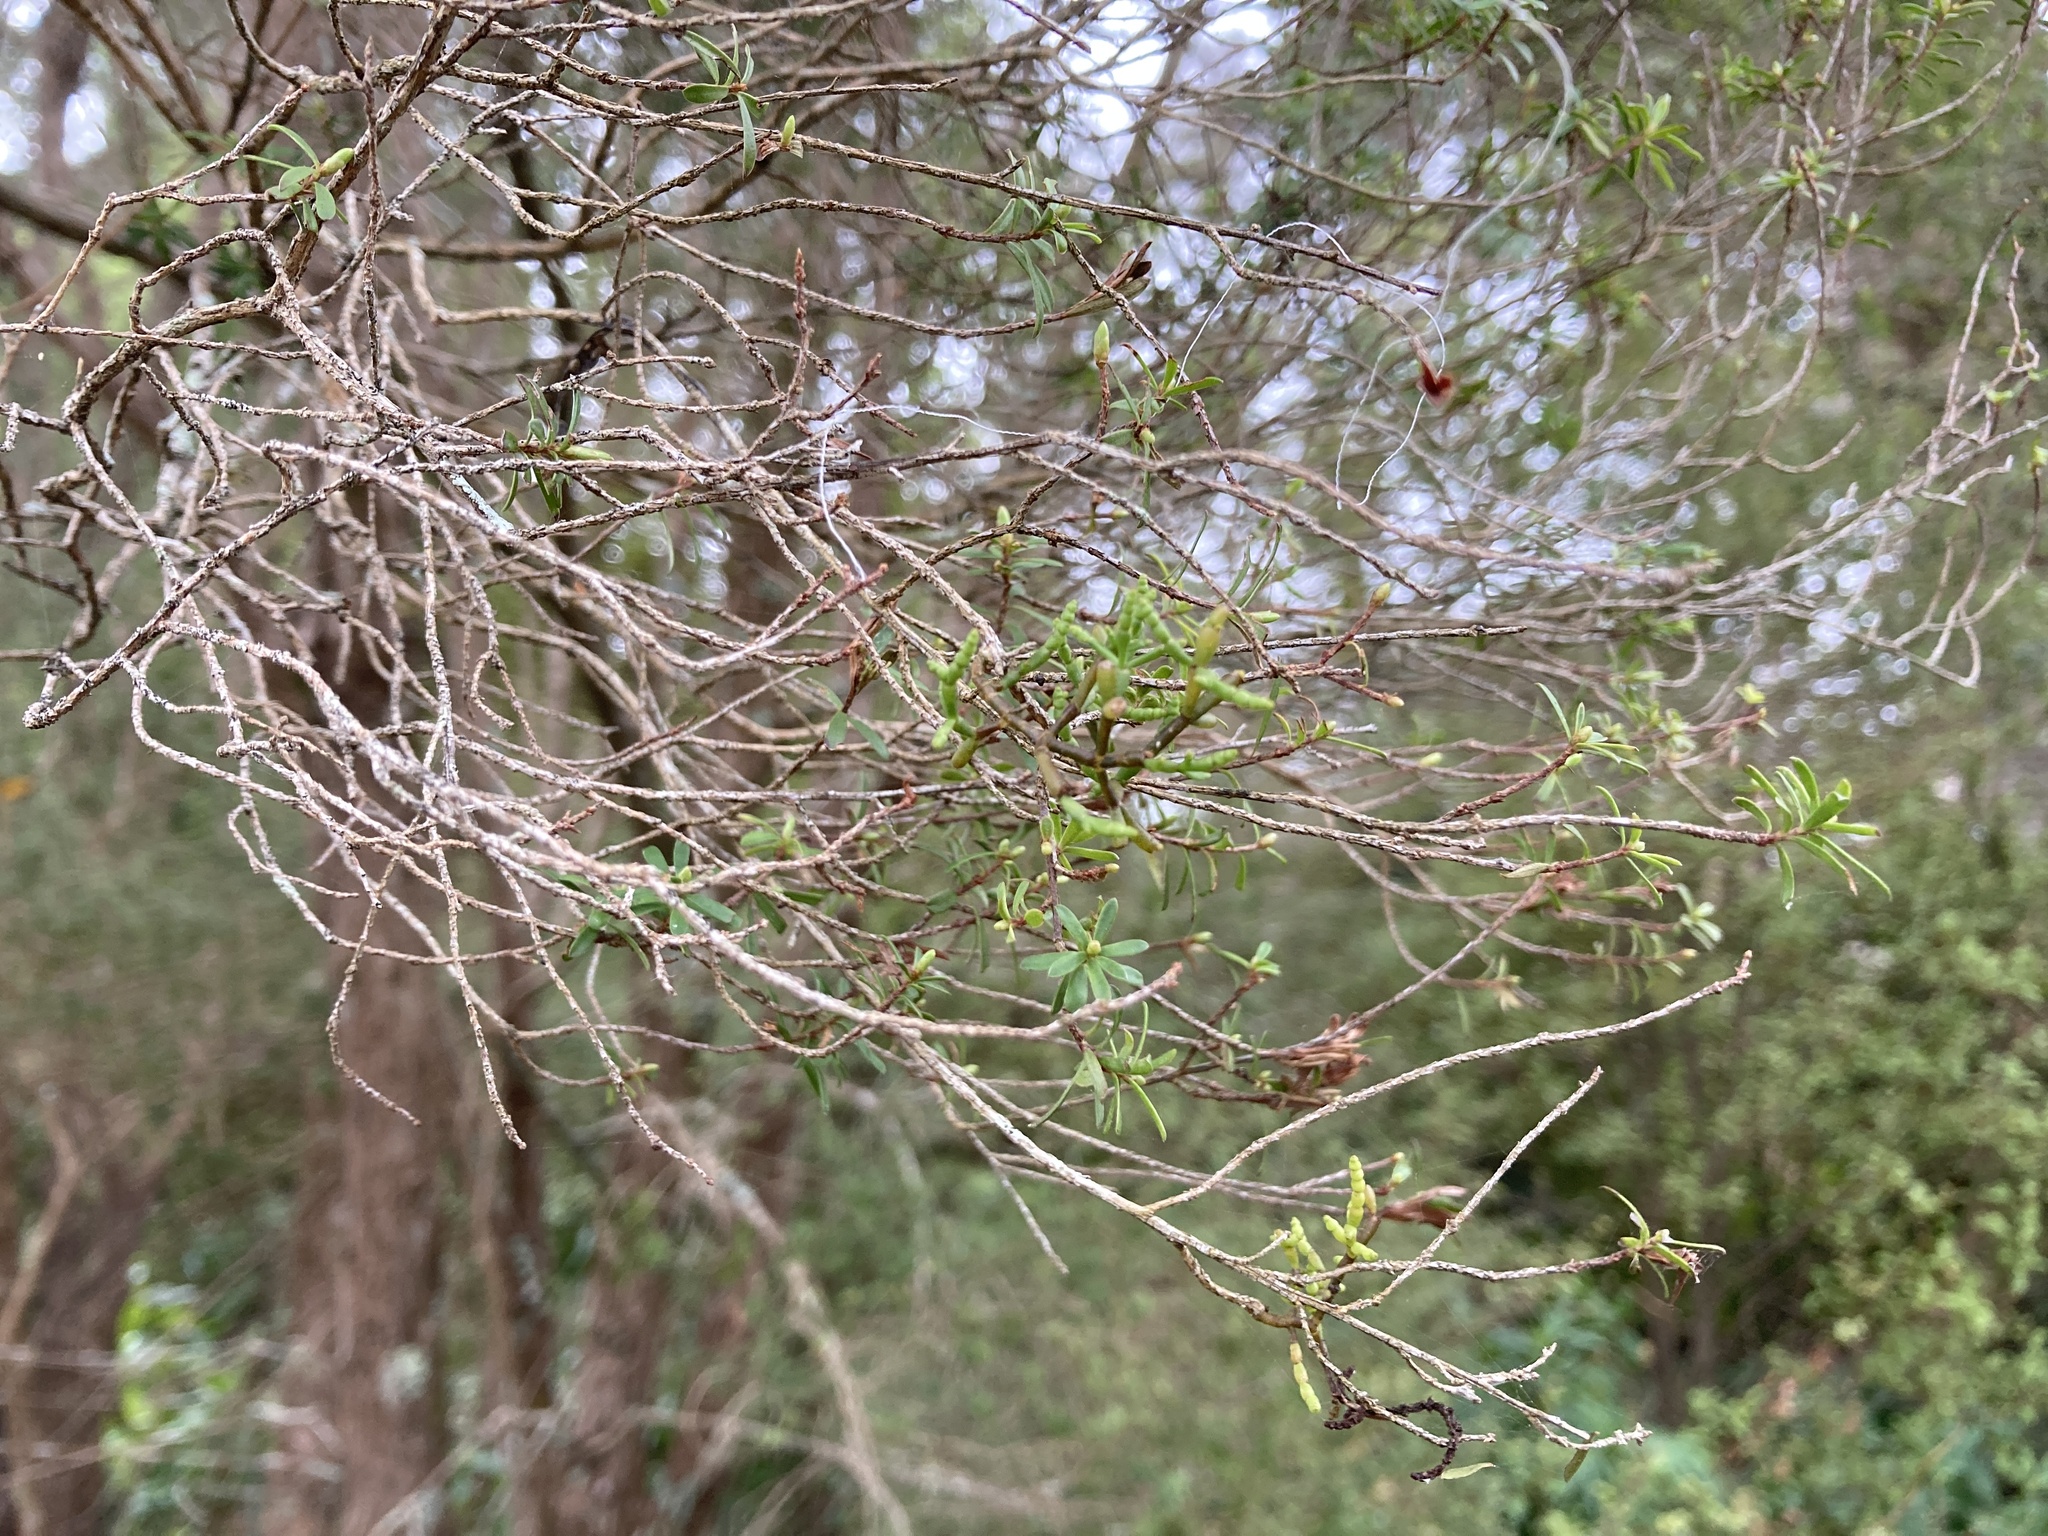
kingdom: Plantae
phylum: Tracheophyta
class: Magnoliopsida
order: Santalales
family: Viscaceae
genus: Korthalsella
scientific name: Korthalsella salicornioides
